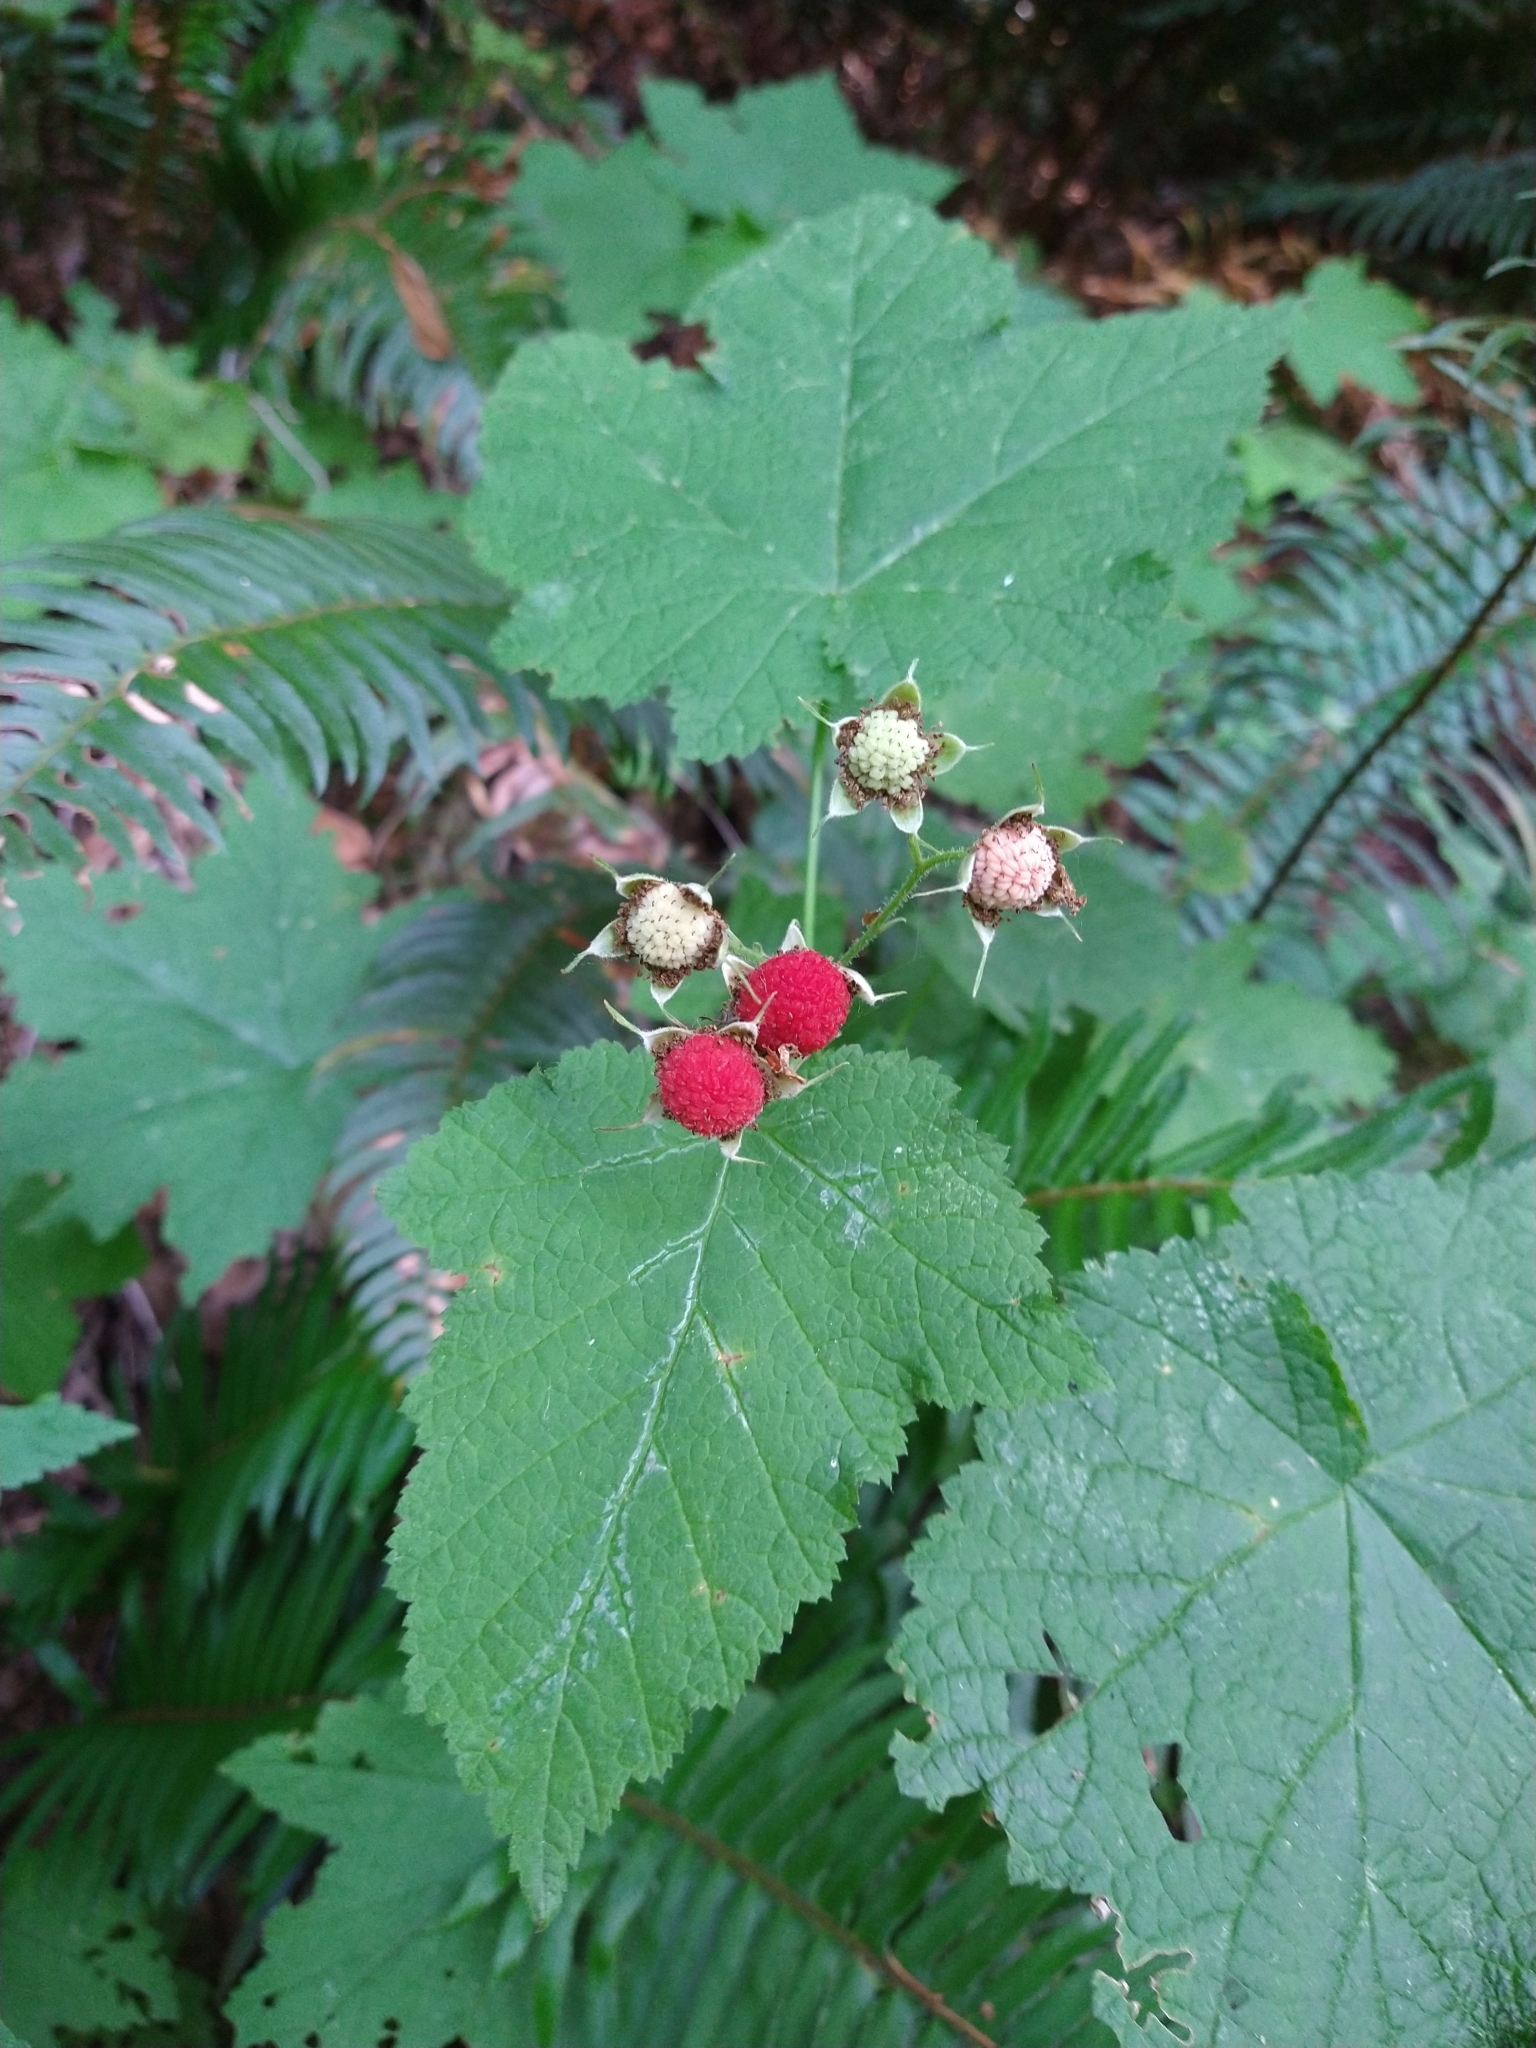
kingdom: Plantae
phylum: Tracheophyta
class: Magnoliopsida
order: Rosales
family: Rosaceae
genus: Rubus
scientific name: Rubus parviflorus
